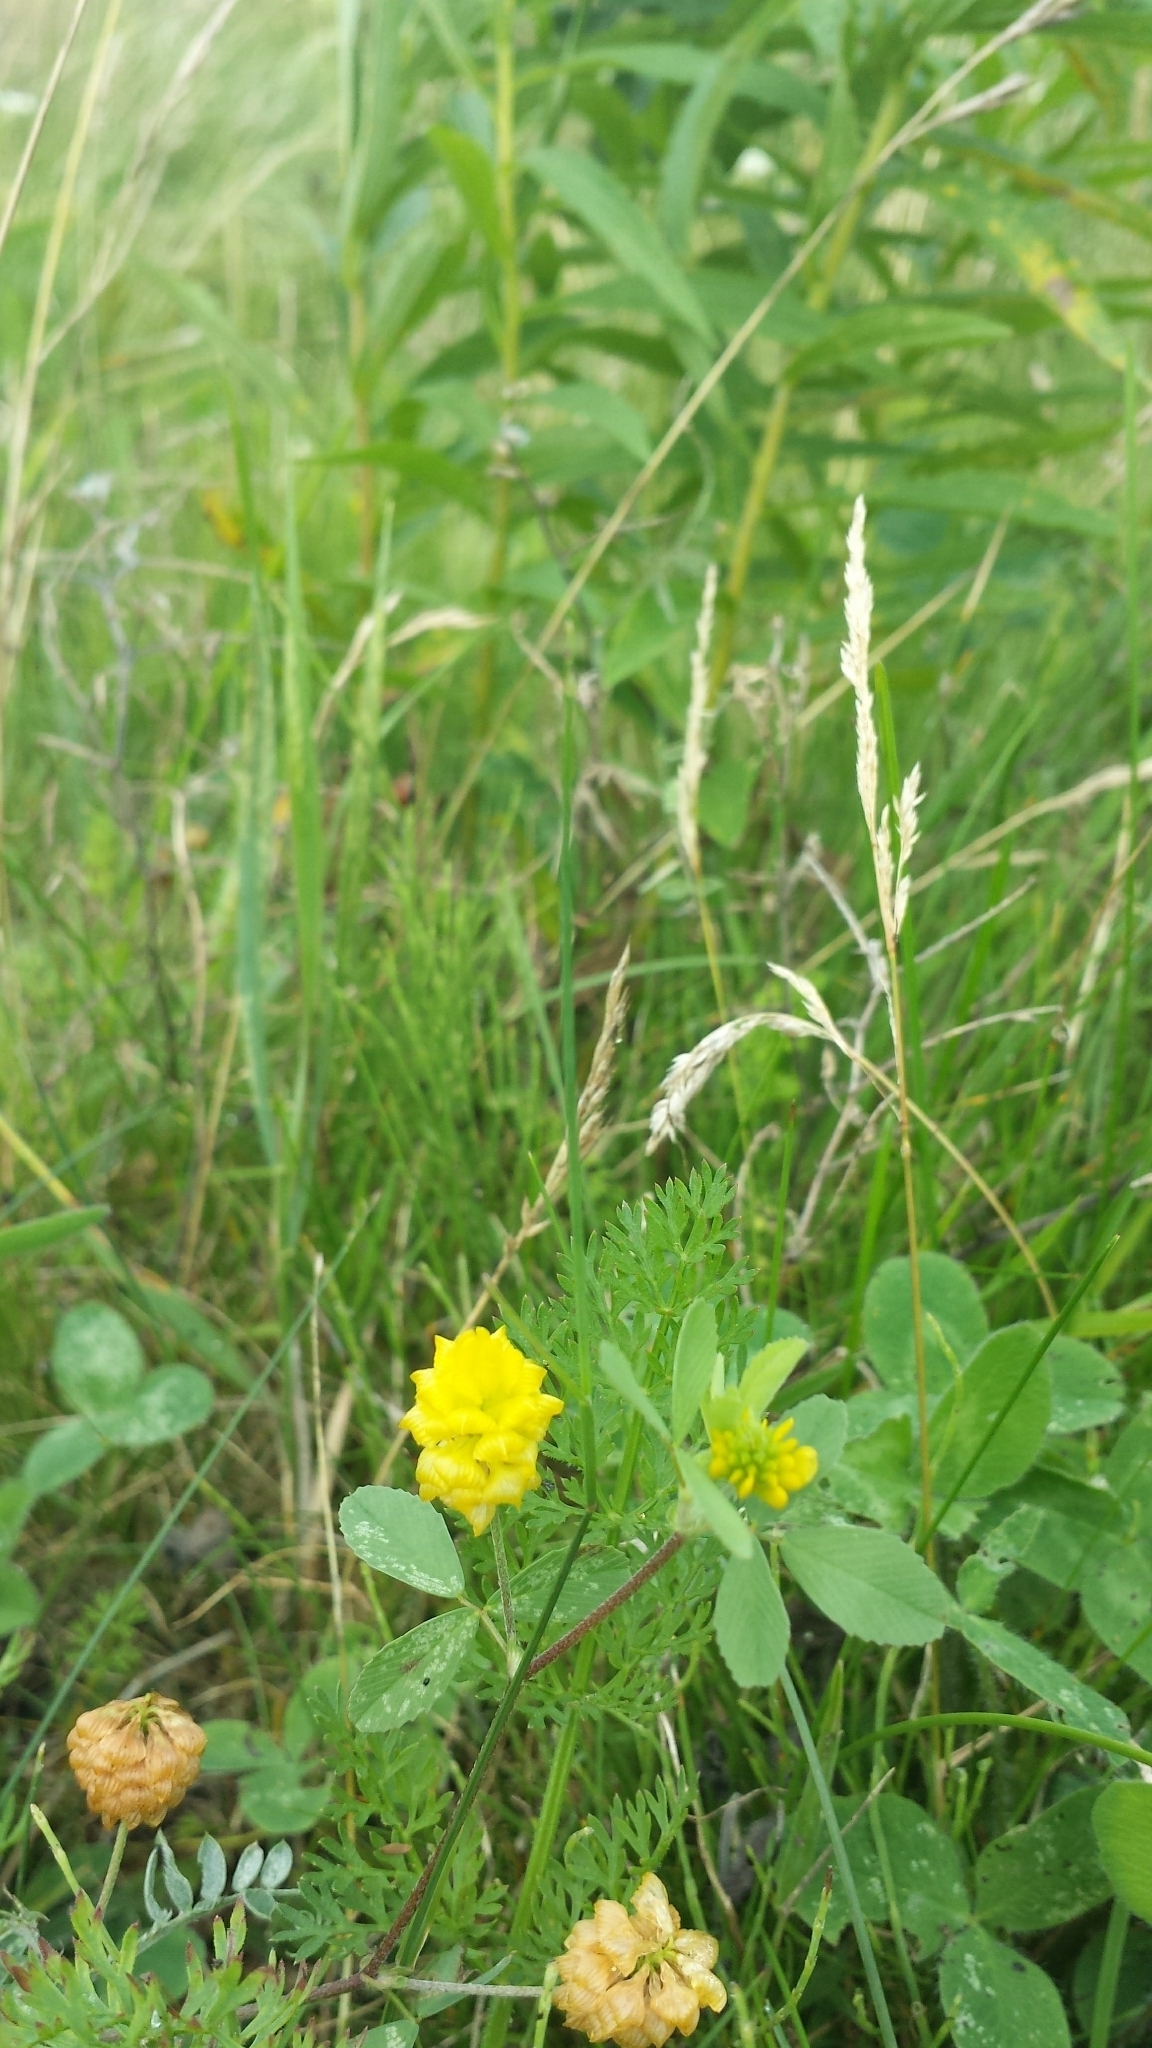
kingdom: Plantae
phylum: Tracheophyta
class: Magnoliopsida
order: Fabales
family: Fabaceae
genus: Trifolium
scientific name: Trifolium campestre
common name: Field clover
